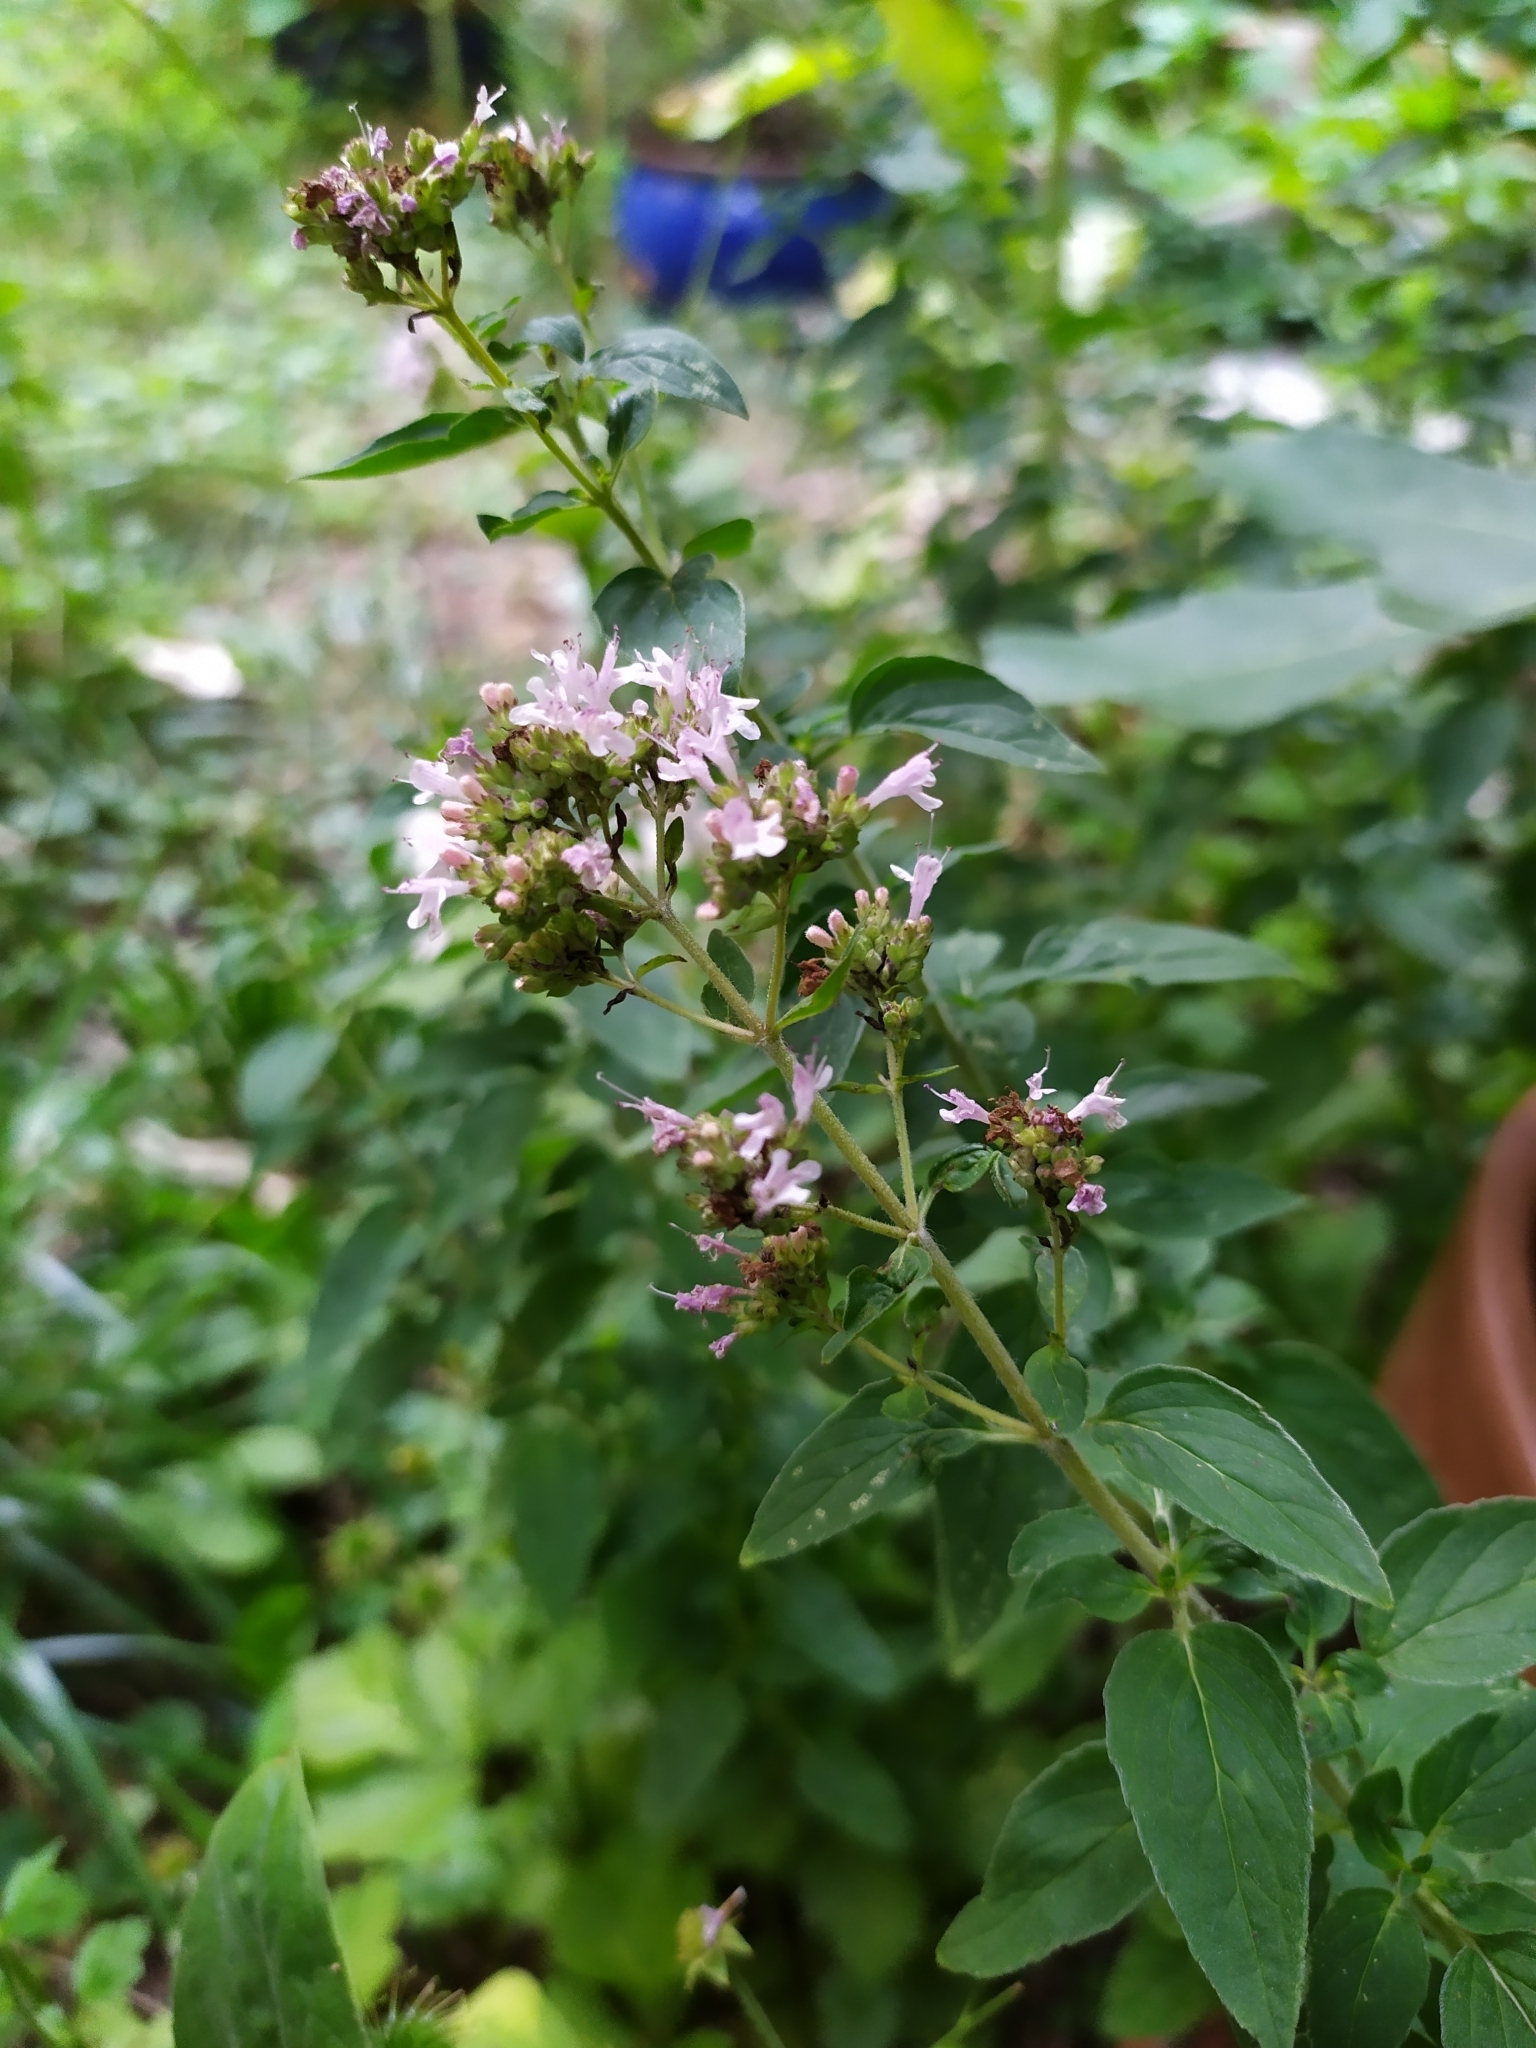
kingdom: Plantae
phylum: Tracheophyta
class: Magnoliopsida
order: Lamiales
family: Lamiaceae
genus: Origanum
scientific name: Origanum vulgare
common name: Wild marjoram
